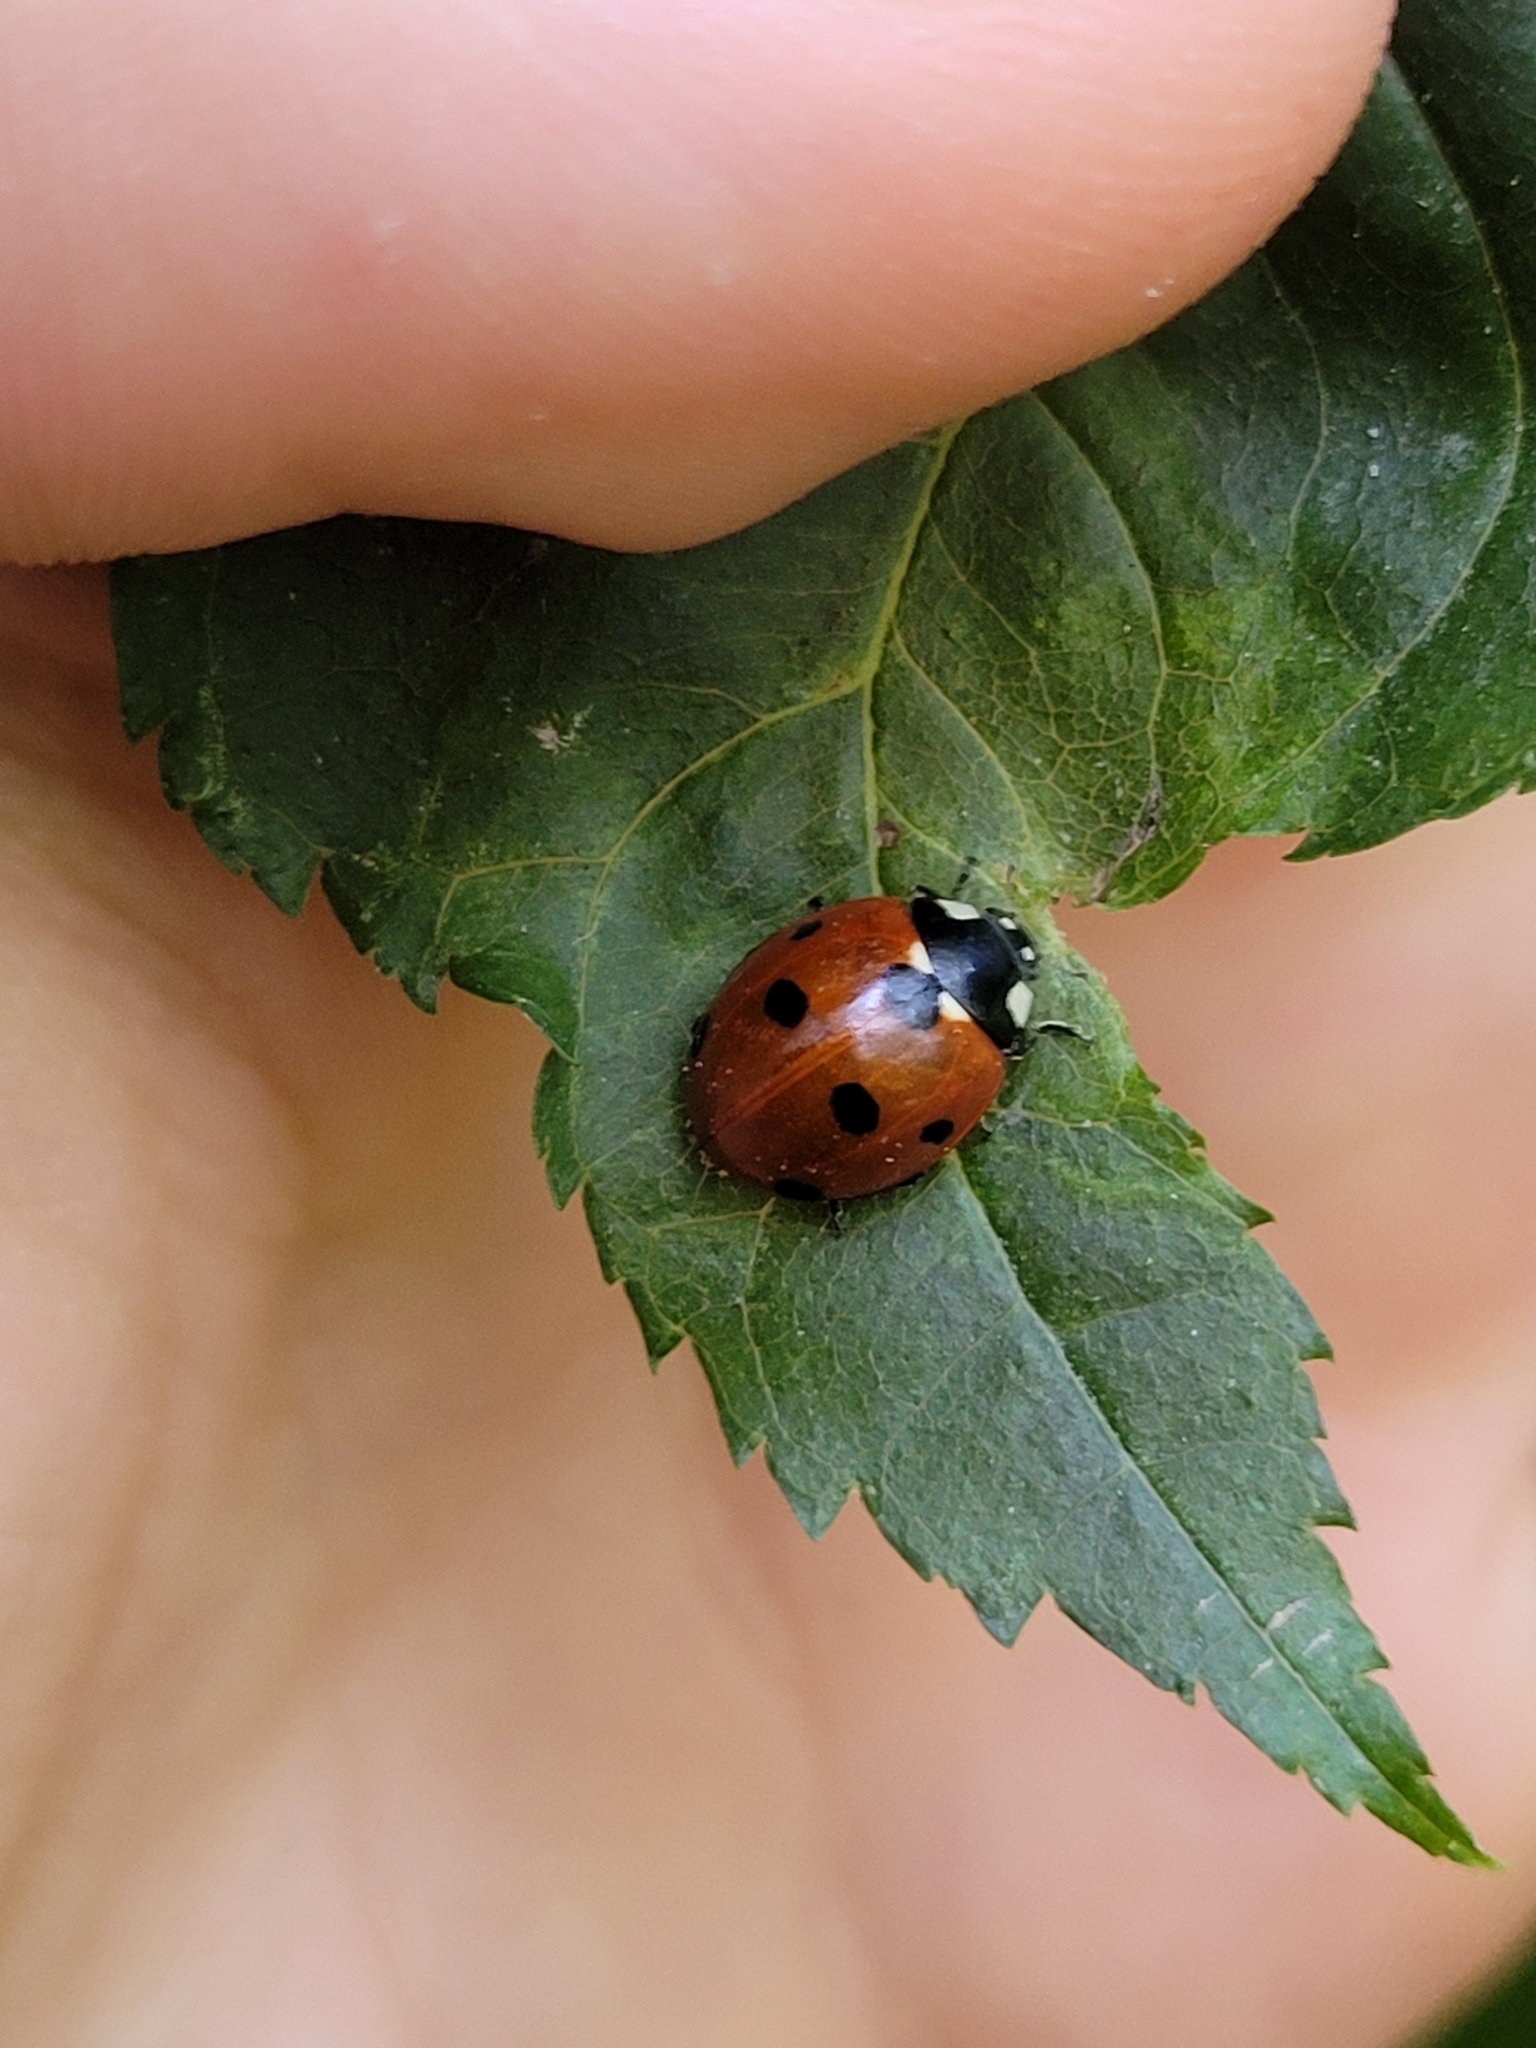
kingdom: Animalia
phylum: Arthropoda
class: Insecta
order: Coleoptera
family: Coccinellidae
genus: Coccinella
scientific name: Coccinella septempunctata
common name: Sevenspotted lady beetle
